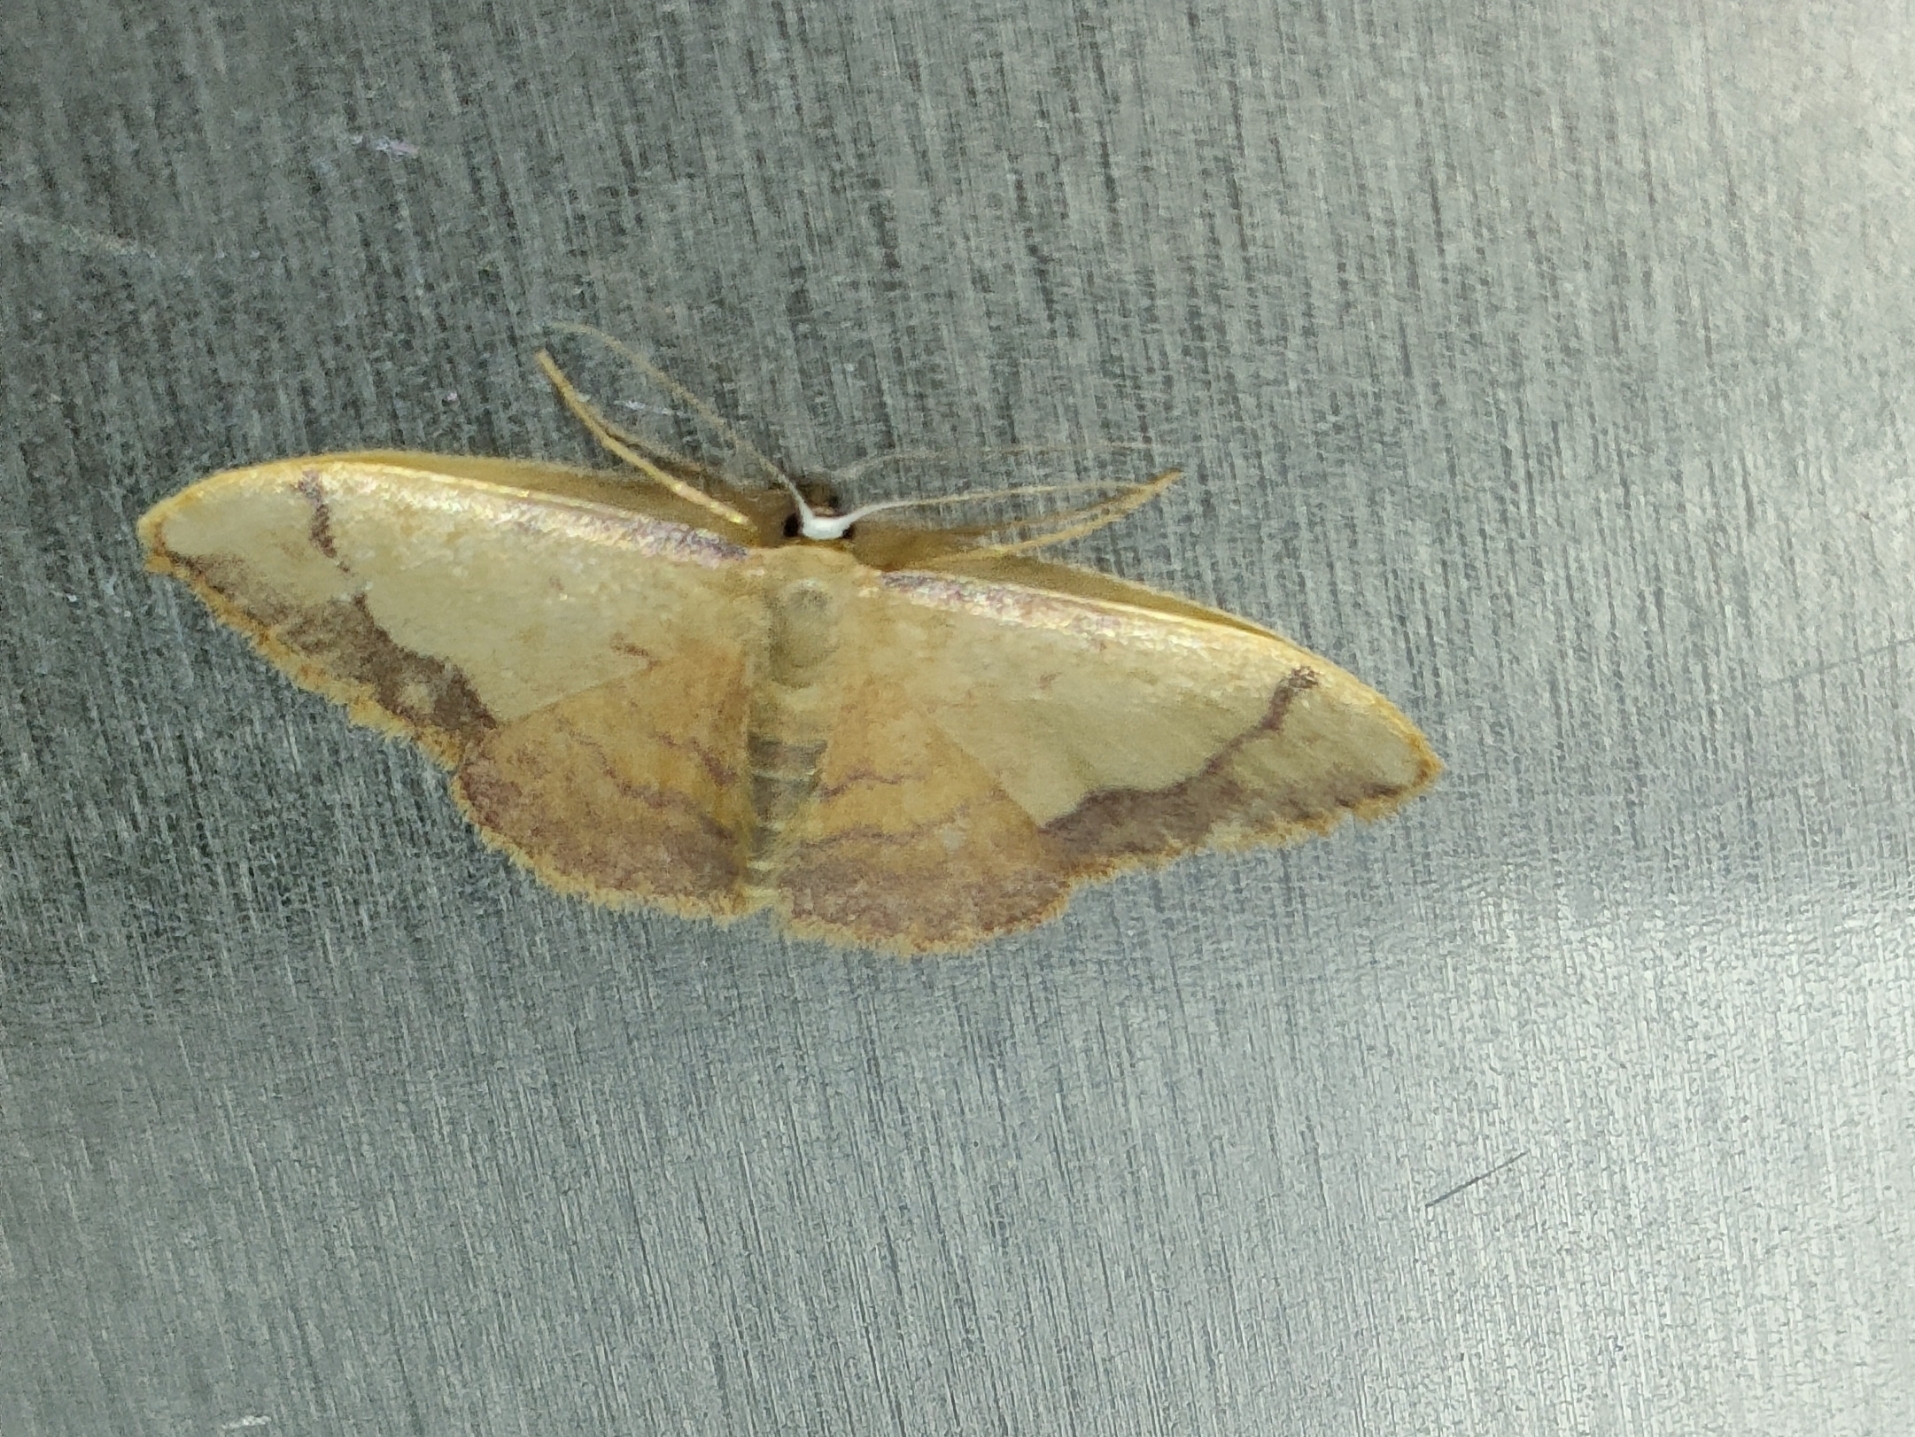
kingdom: Animalia
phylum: Arthropoda
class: Insecta
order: Lepidoptera
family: Geometridae
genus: Idaea
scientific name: Idaea ostrinaria
